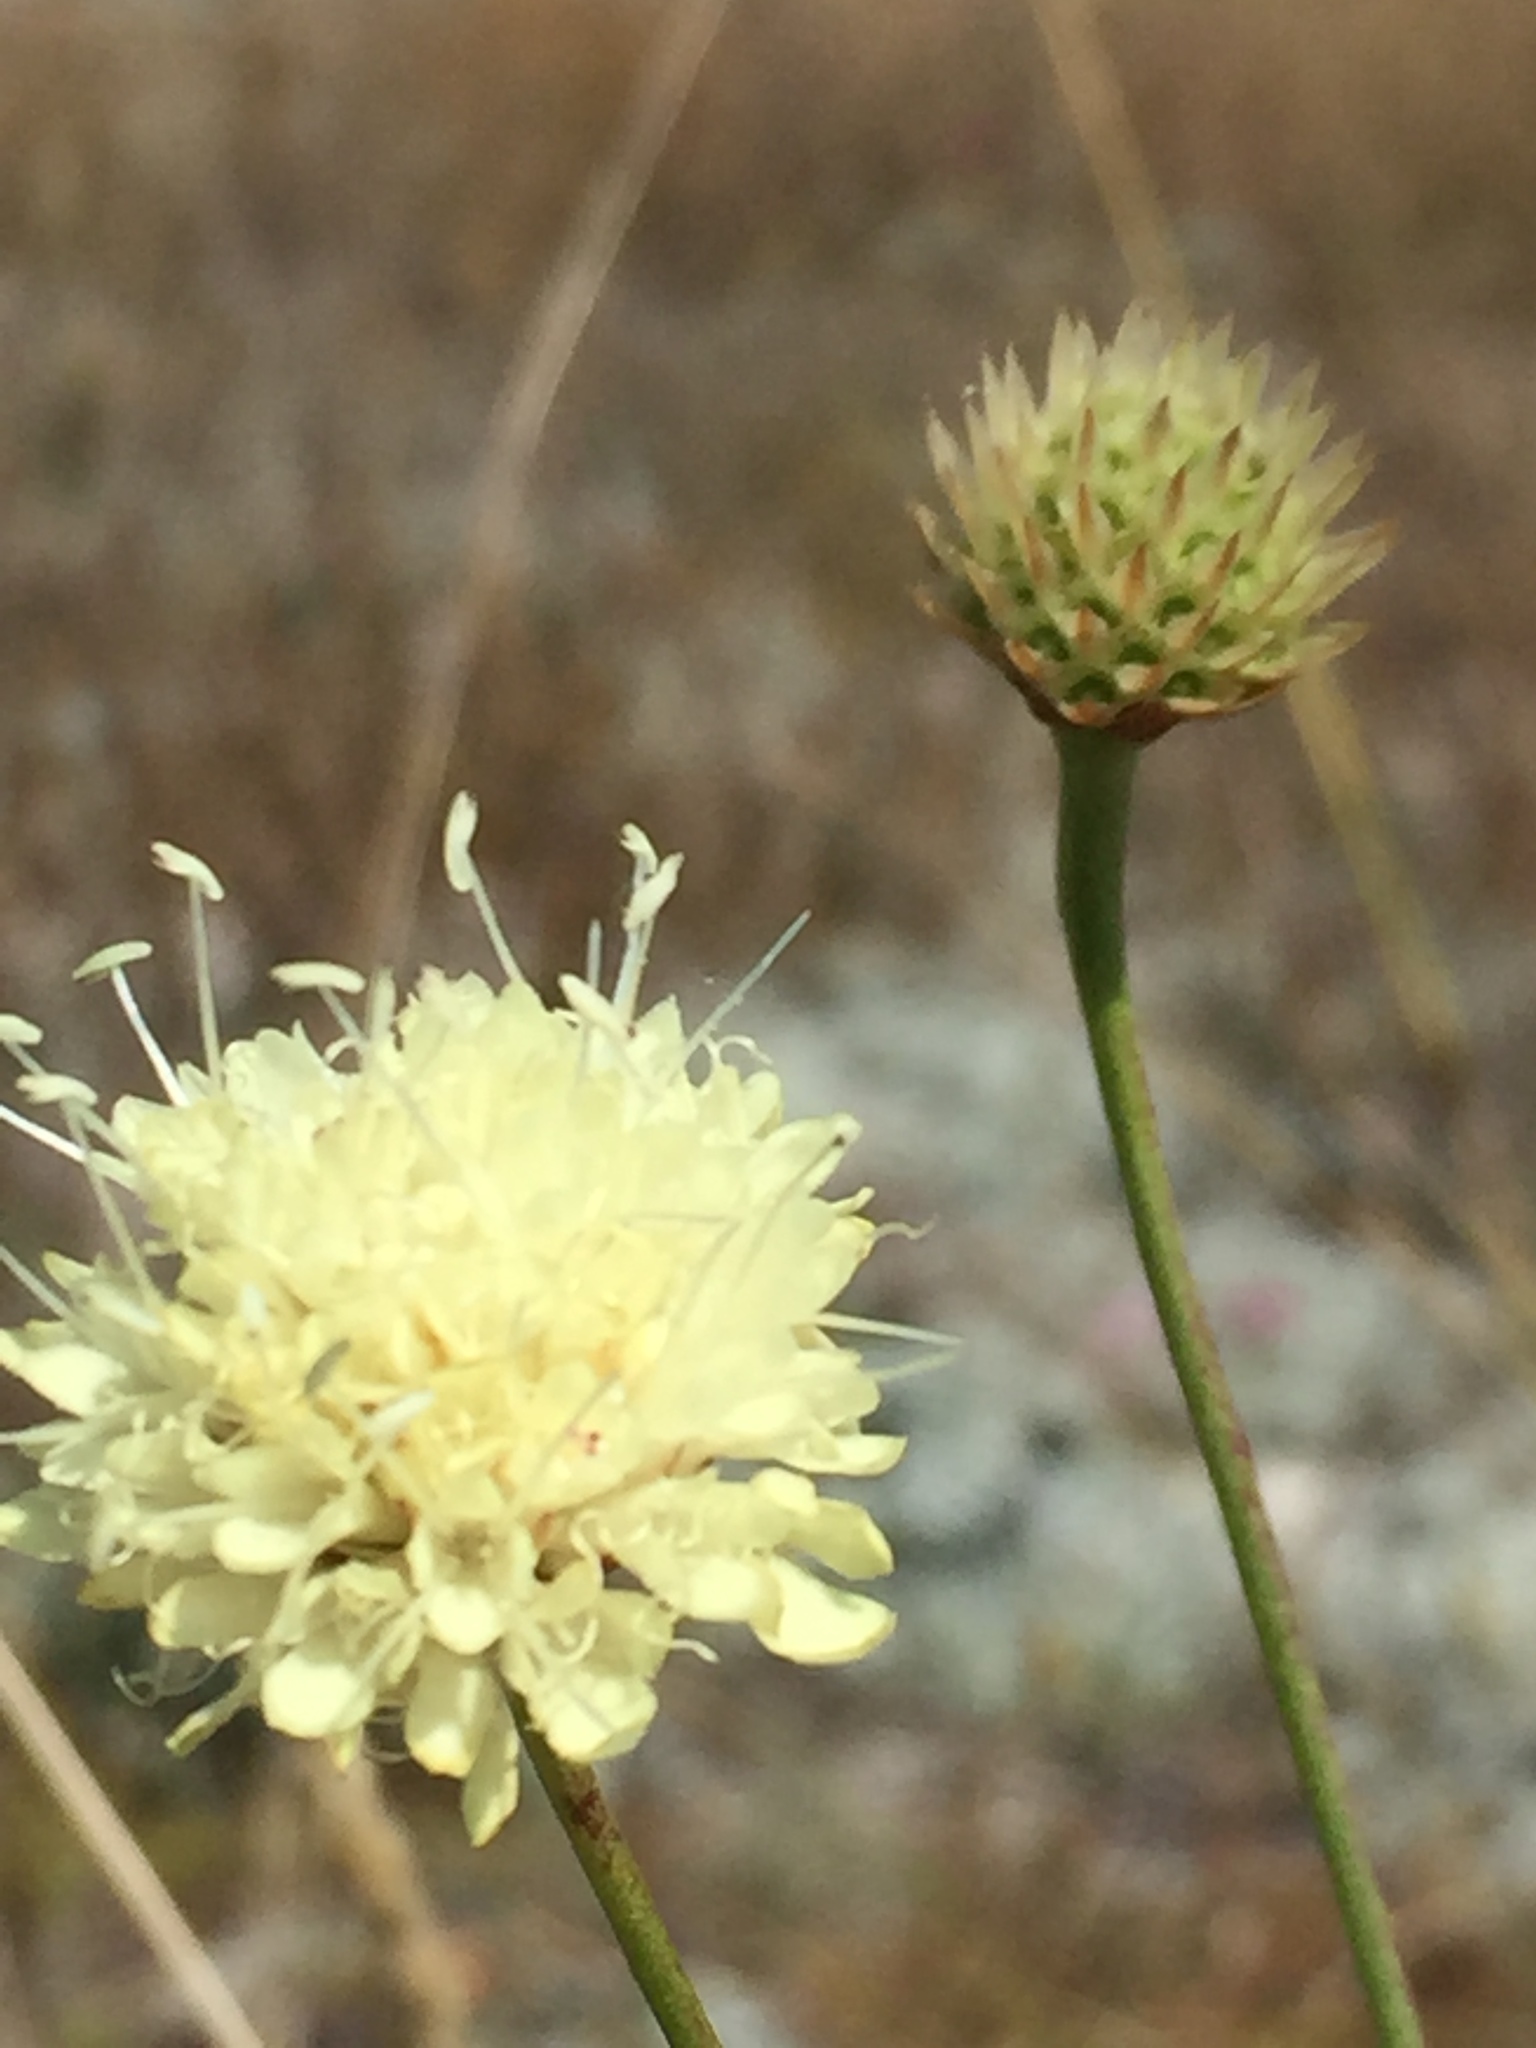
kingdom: Plantae
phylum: Tracheophyta
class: Magnoliopsida
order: Dipsacales
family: Caprifoliaceae
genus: Cephalaria
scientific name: Cephalaria uralensis
